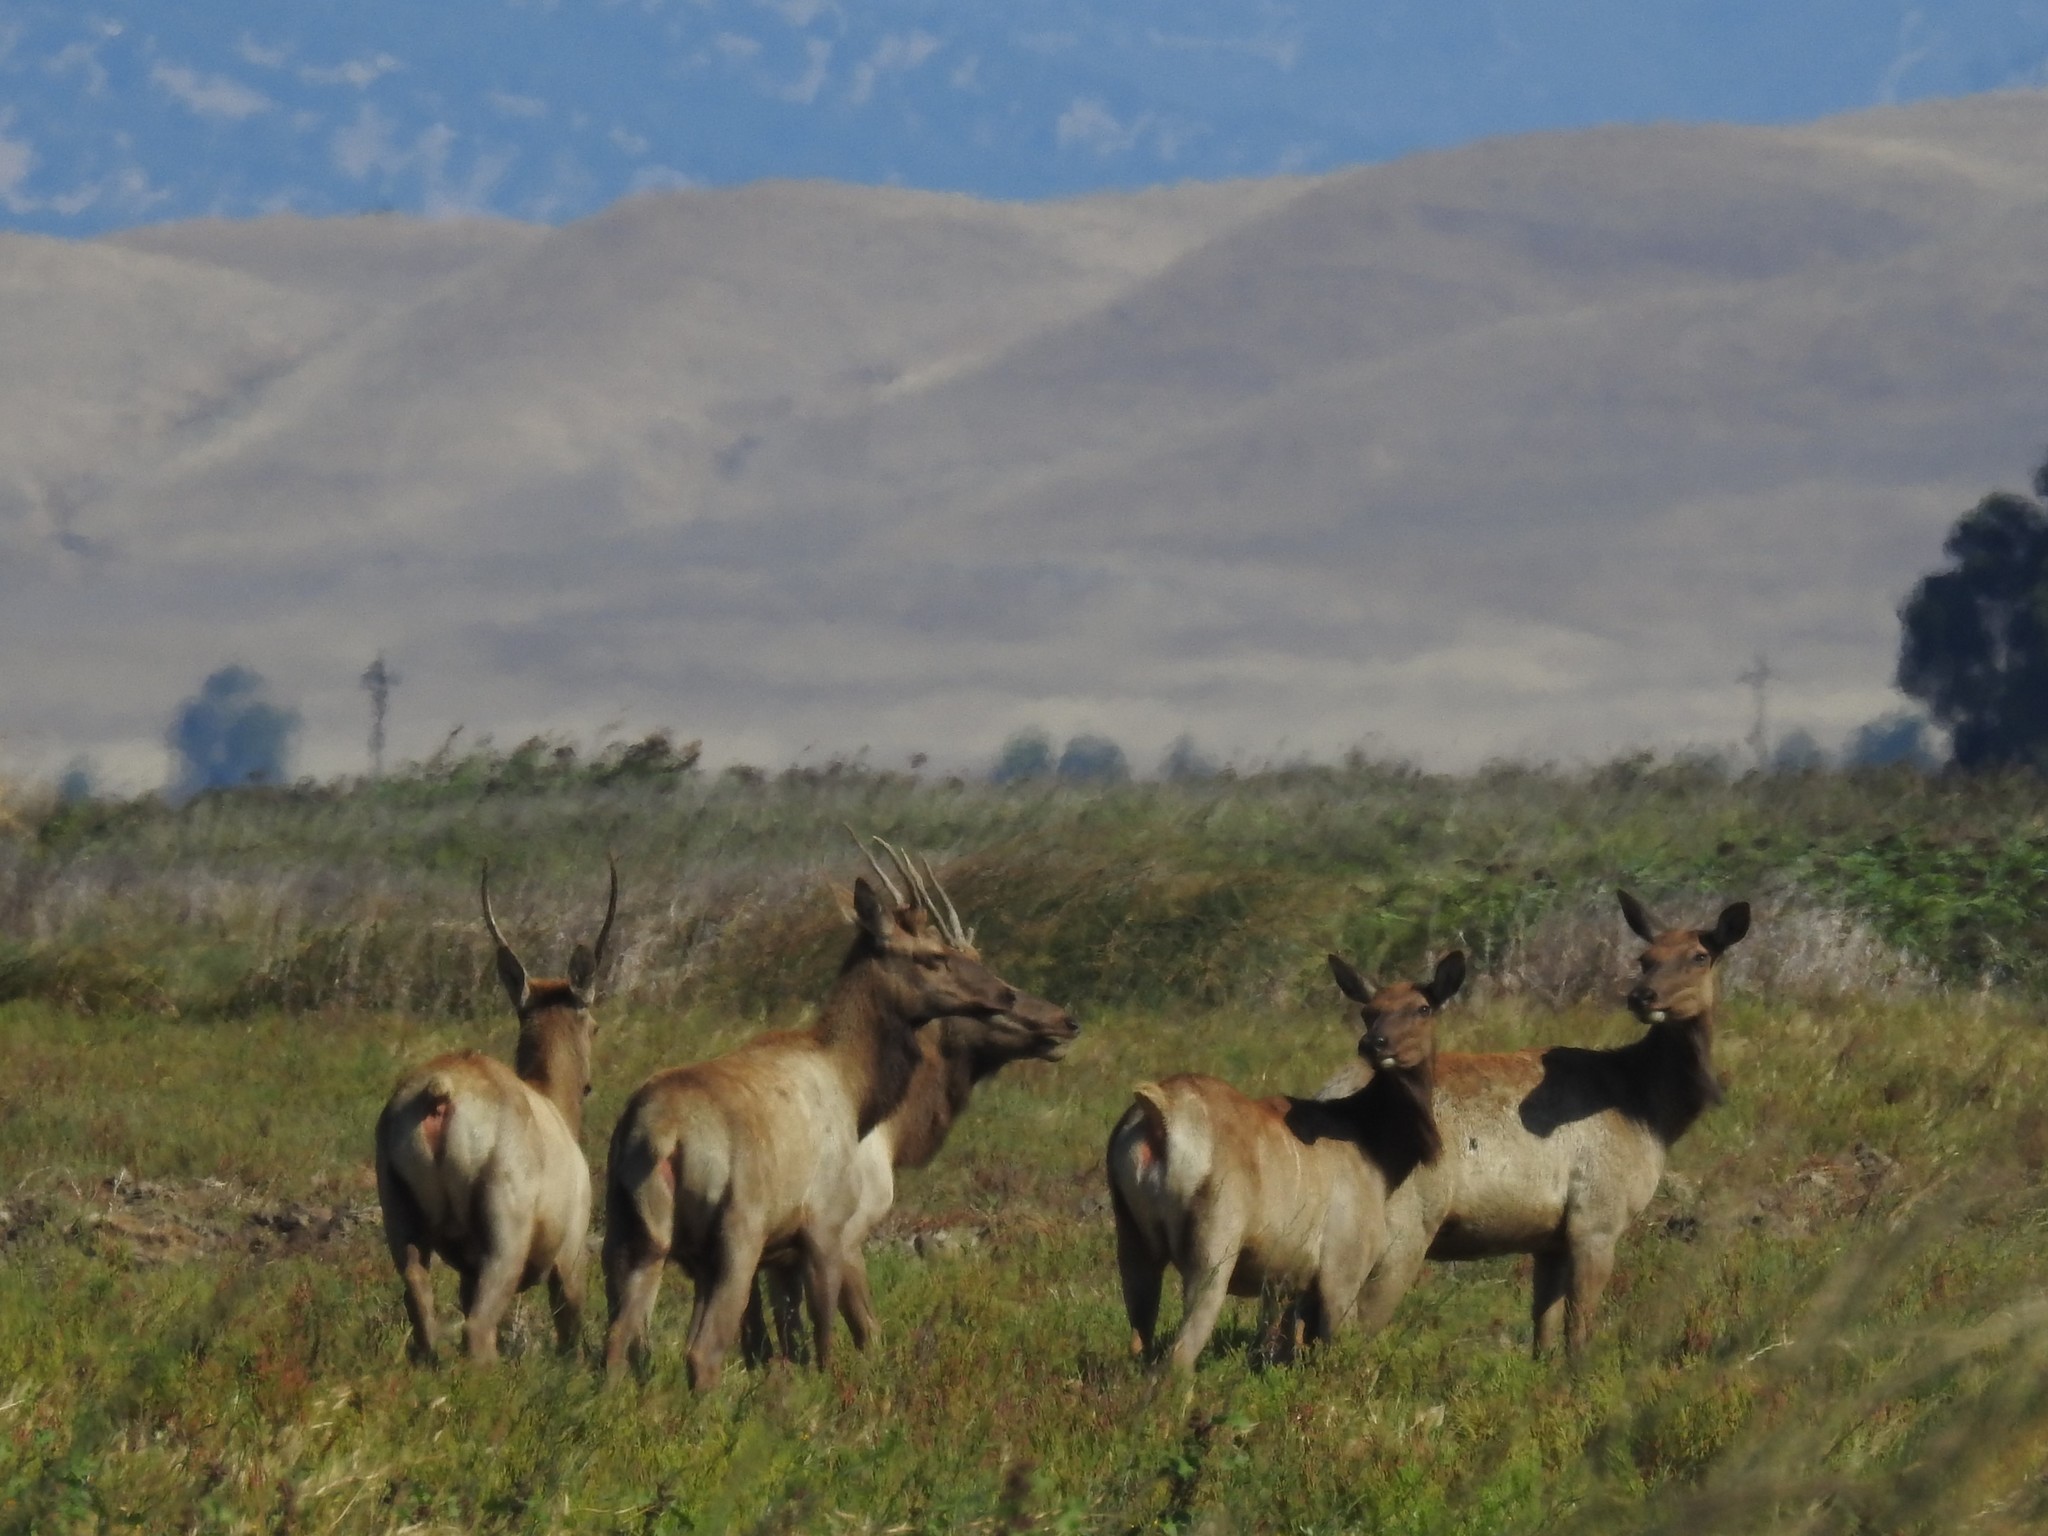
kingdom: Animalia
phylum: Chordata
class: Mammalia
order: Artiodactyla
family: Cervidae
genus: Cervus
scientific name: Cervus elaphus
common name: Red deer
